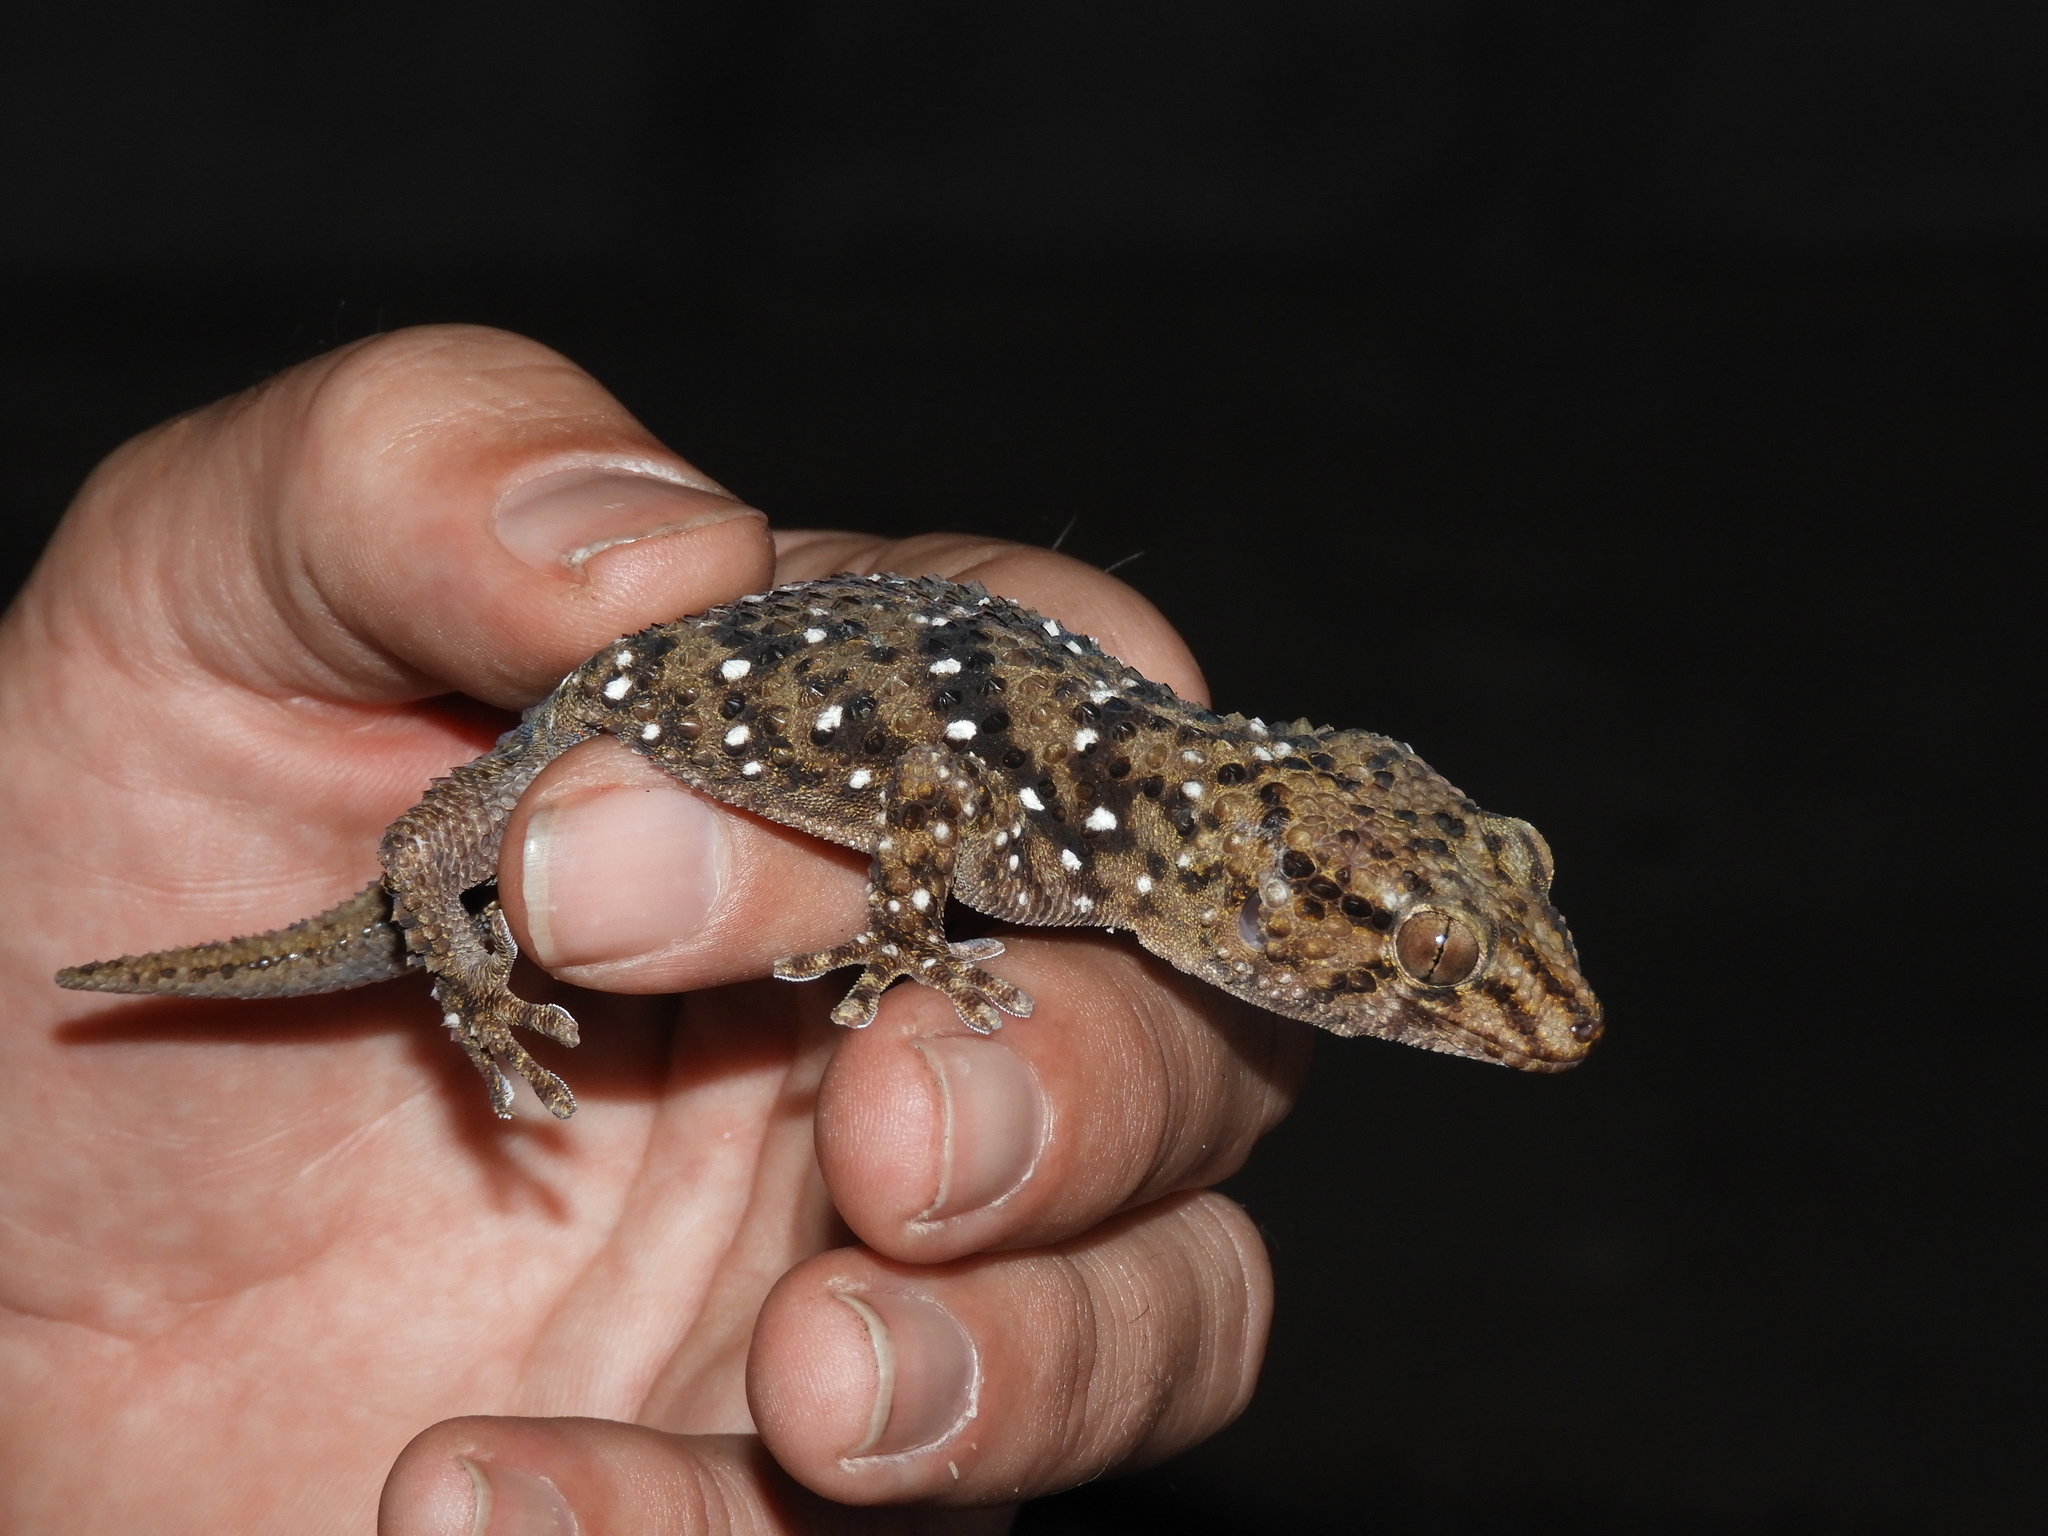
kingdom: Animalia
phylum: Chordata
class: Squamata
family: Gekkonidae
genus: Chondrodactylus
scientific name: Chondrodactylus bibronii
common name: Bibron's gecko
